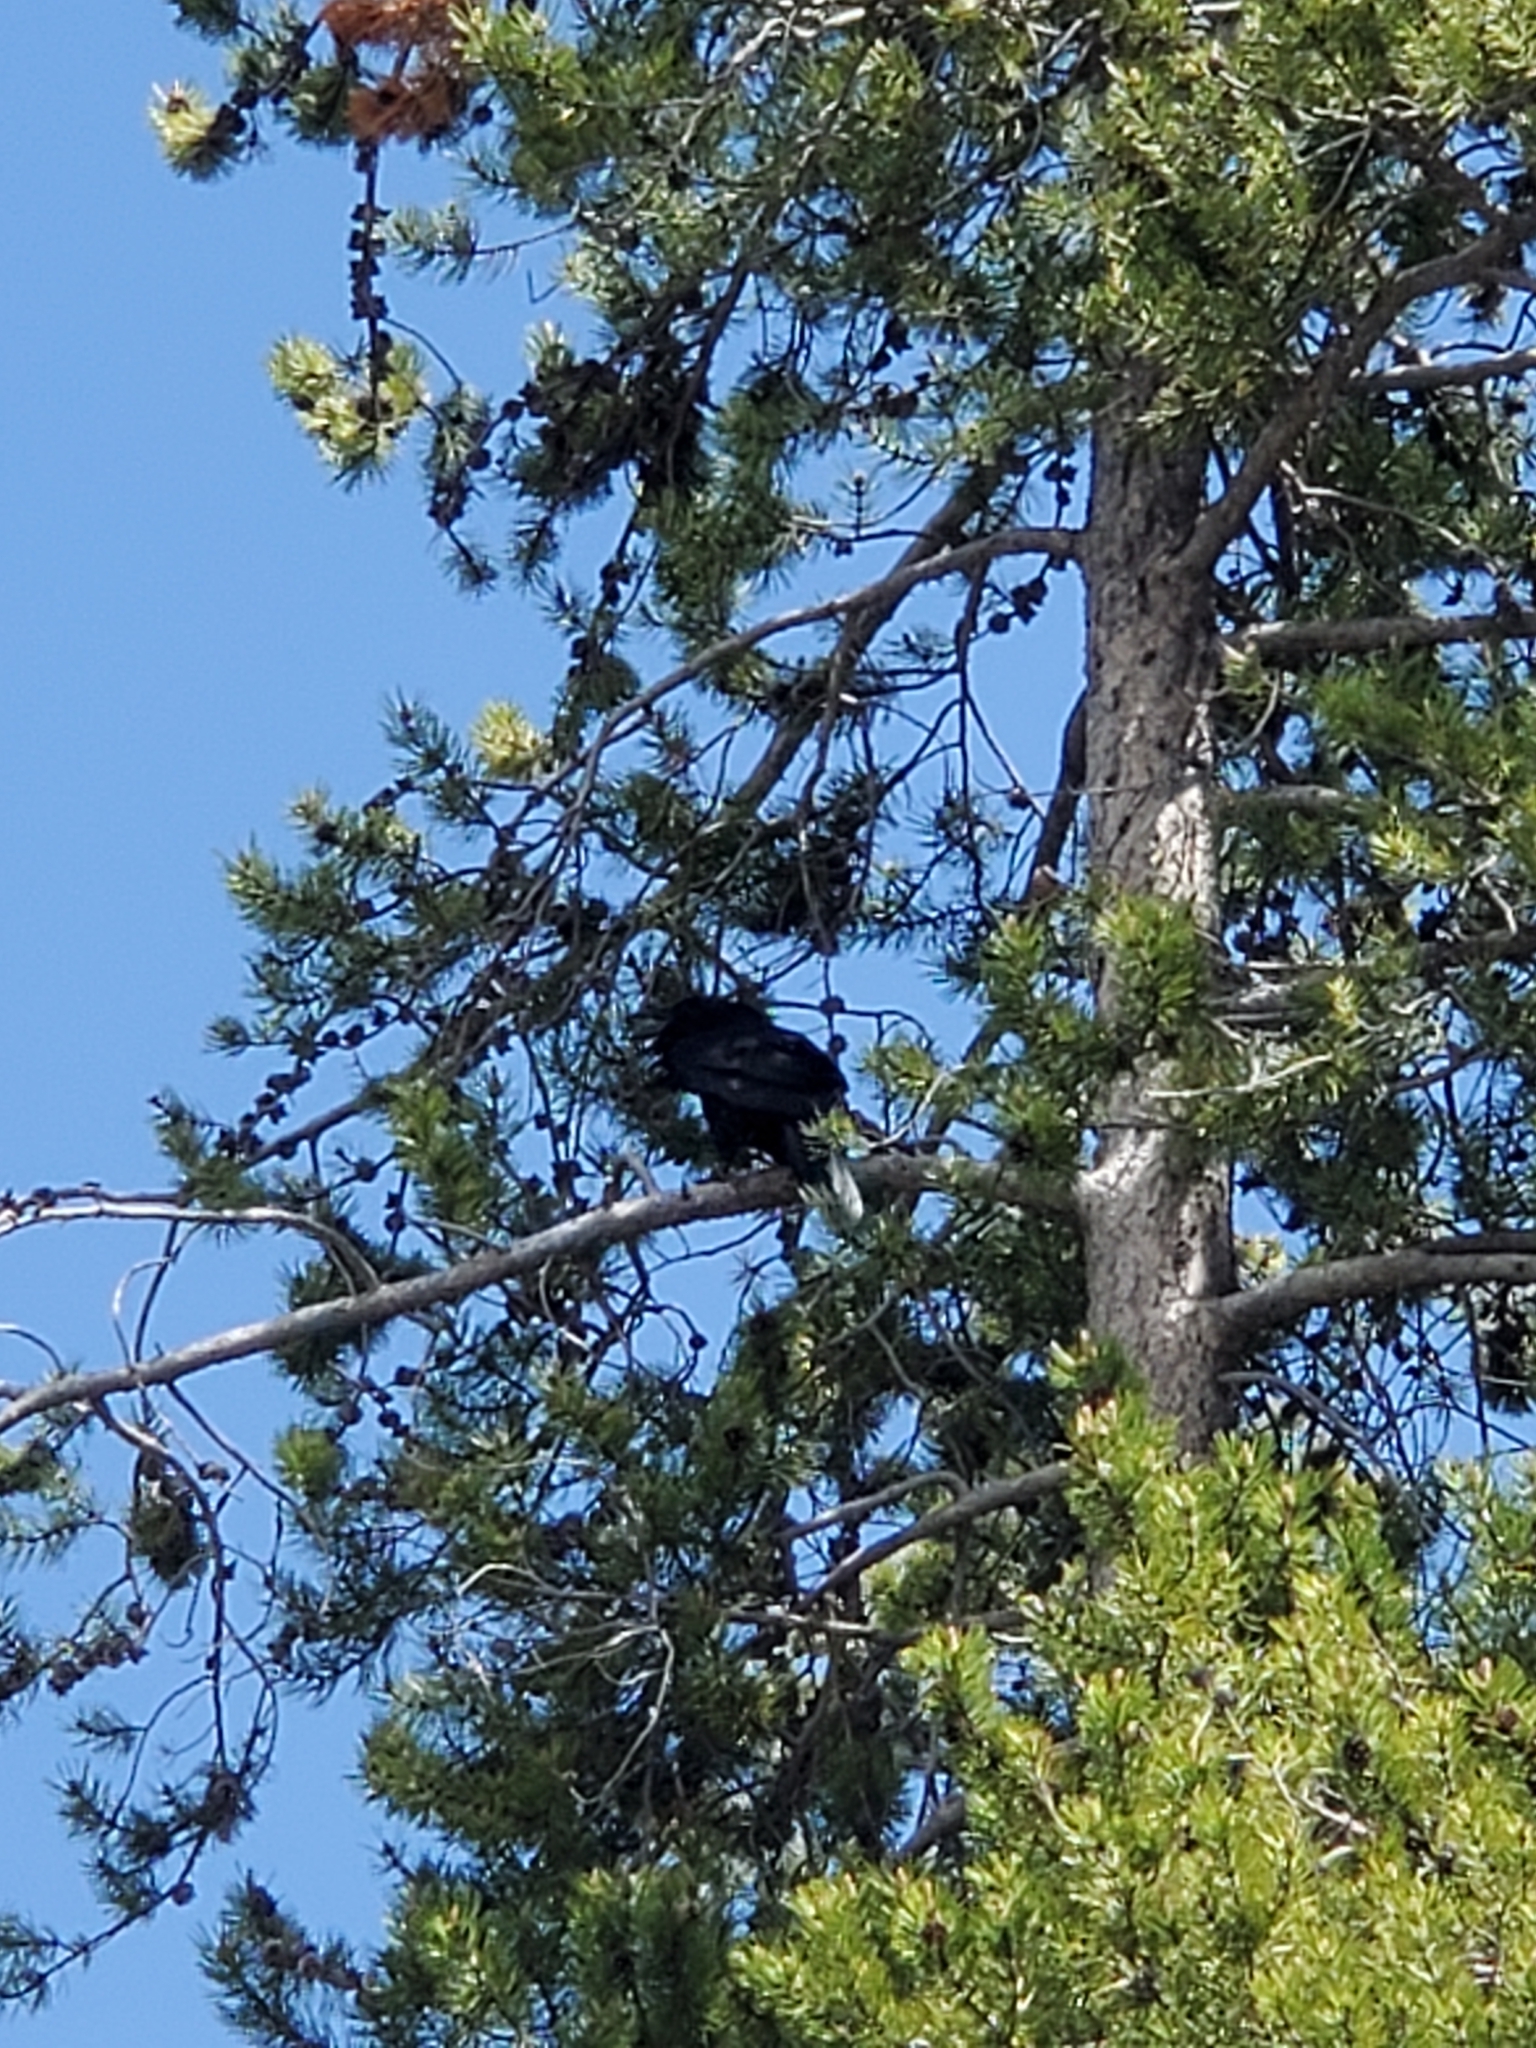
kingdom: Animalia
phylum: Chordata
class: Aves
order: Passeriformes
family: Corvidae
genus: Corvus
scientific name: Corvus corax
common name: Common raven
